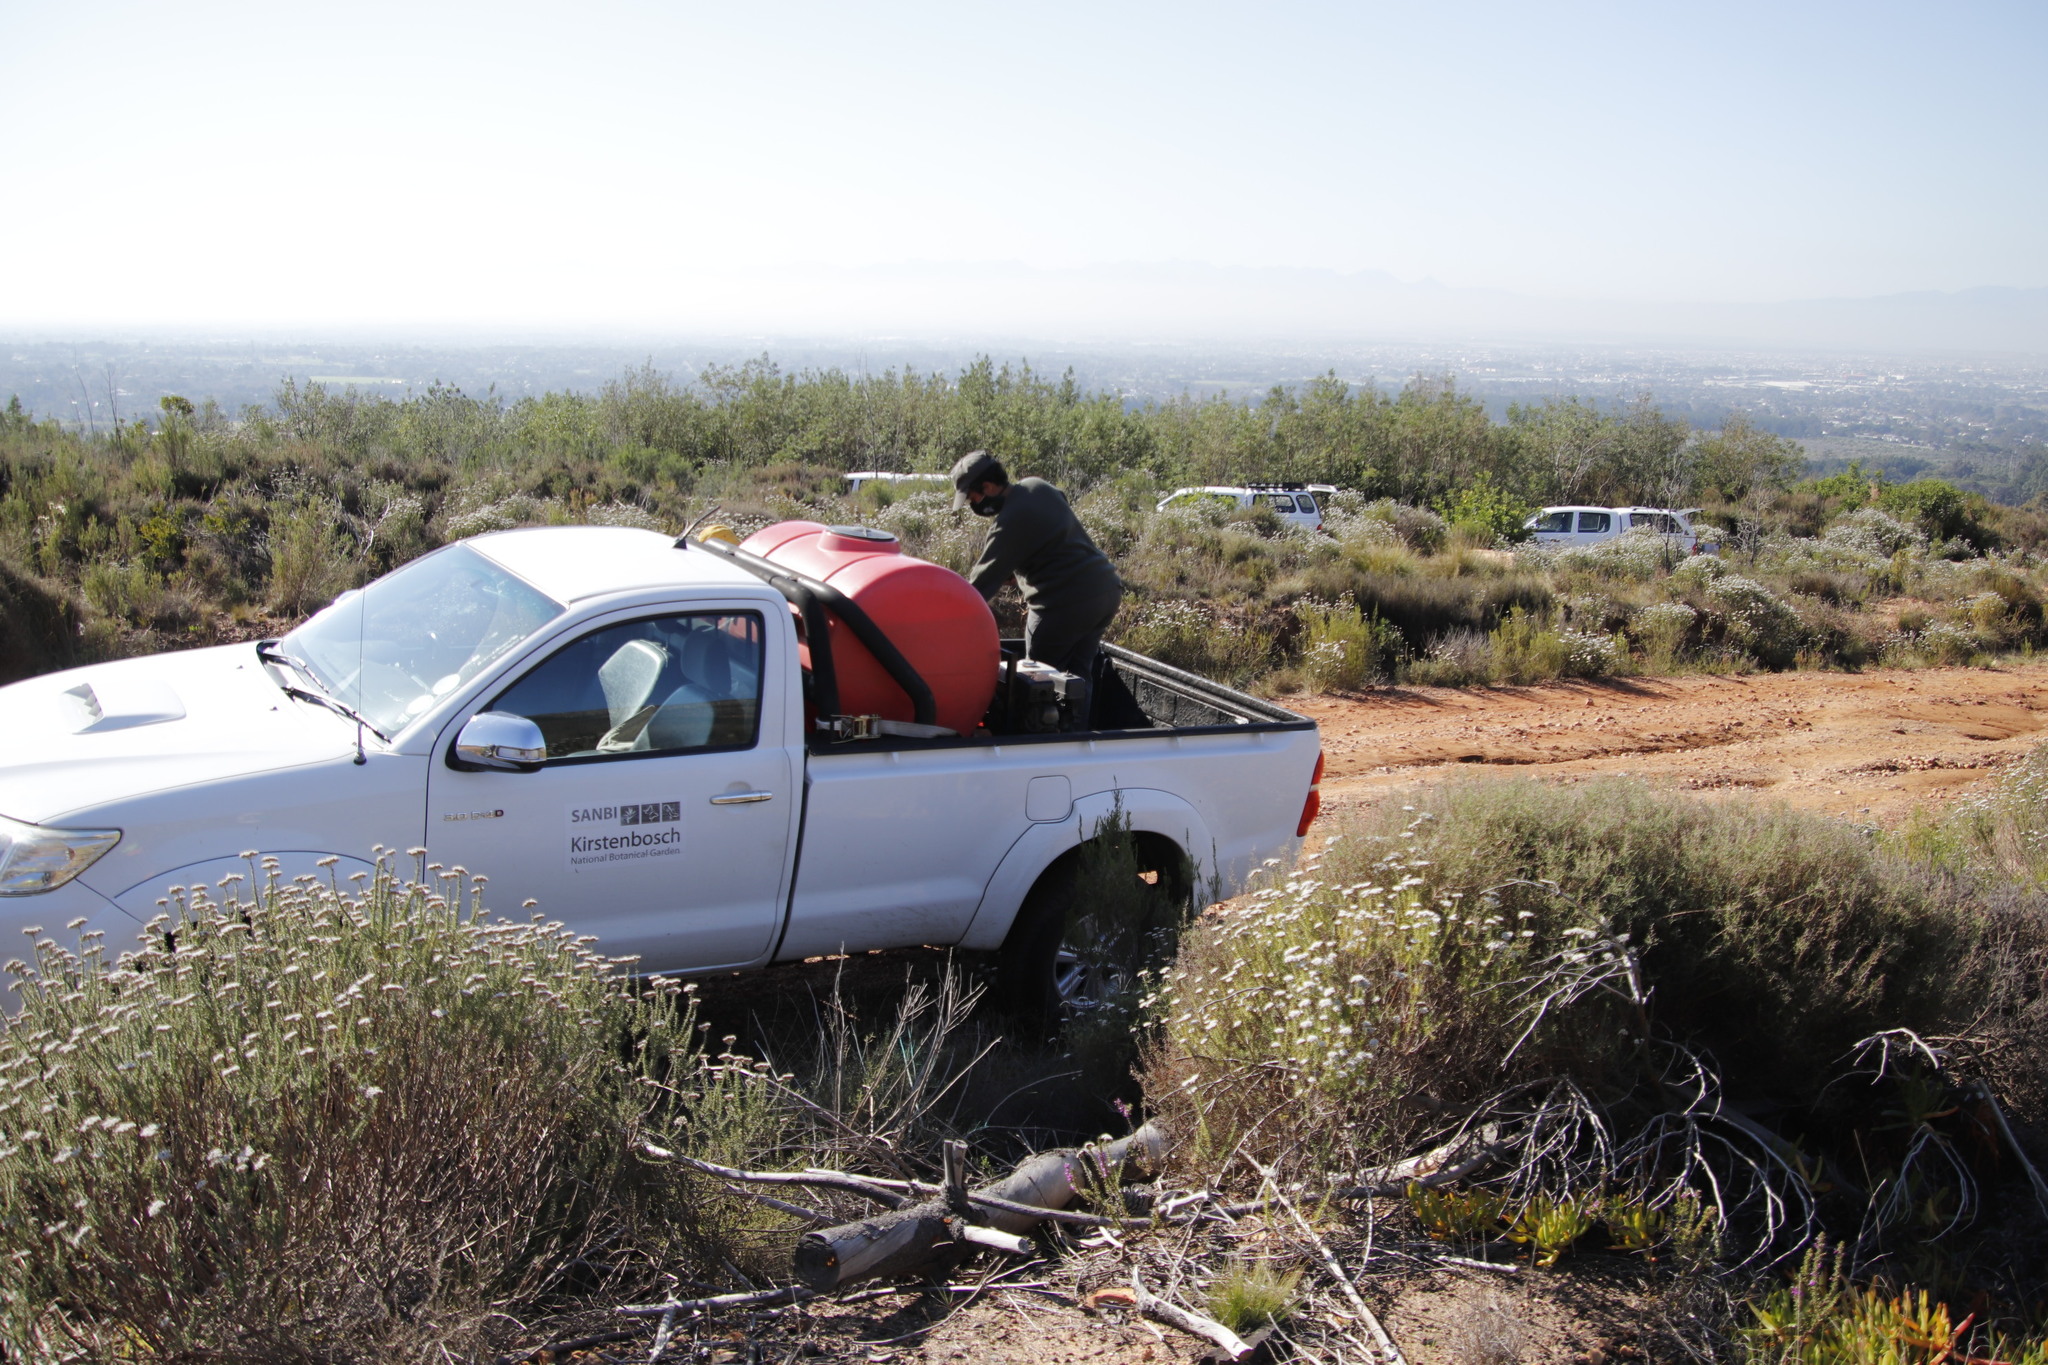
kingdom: Plantae
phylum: Tracheophyta
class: Magnoliopsida
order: Asterales
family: Asteraceae
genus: Metalasia
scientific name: Metalasia densa
